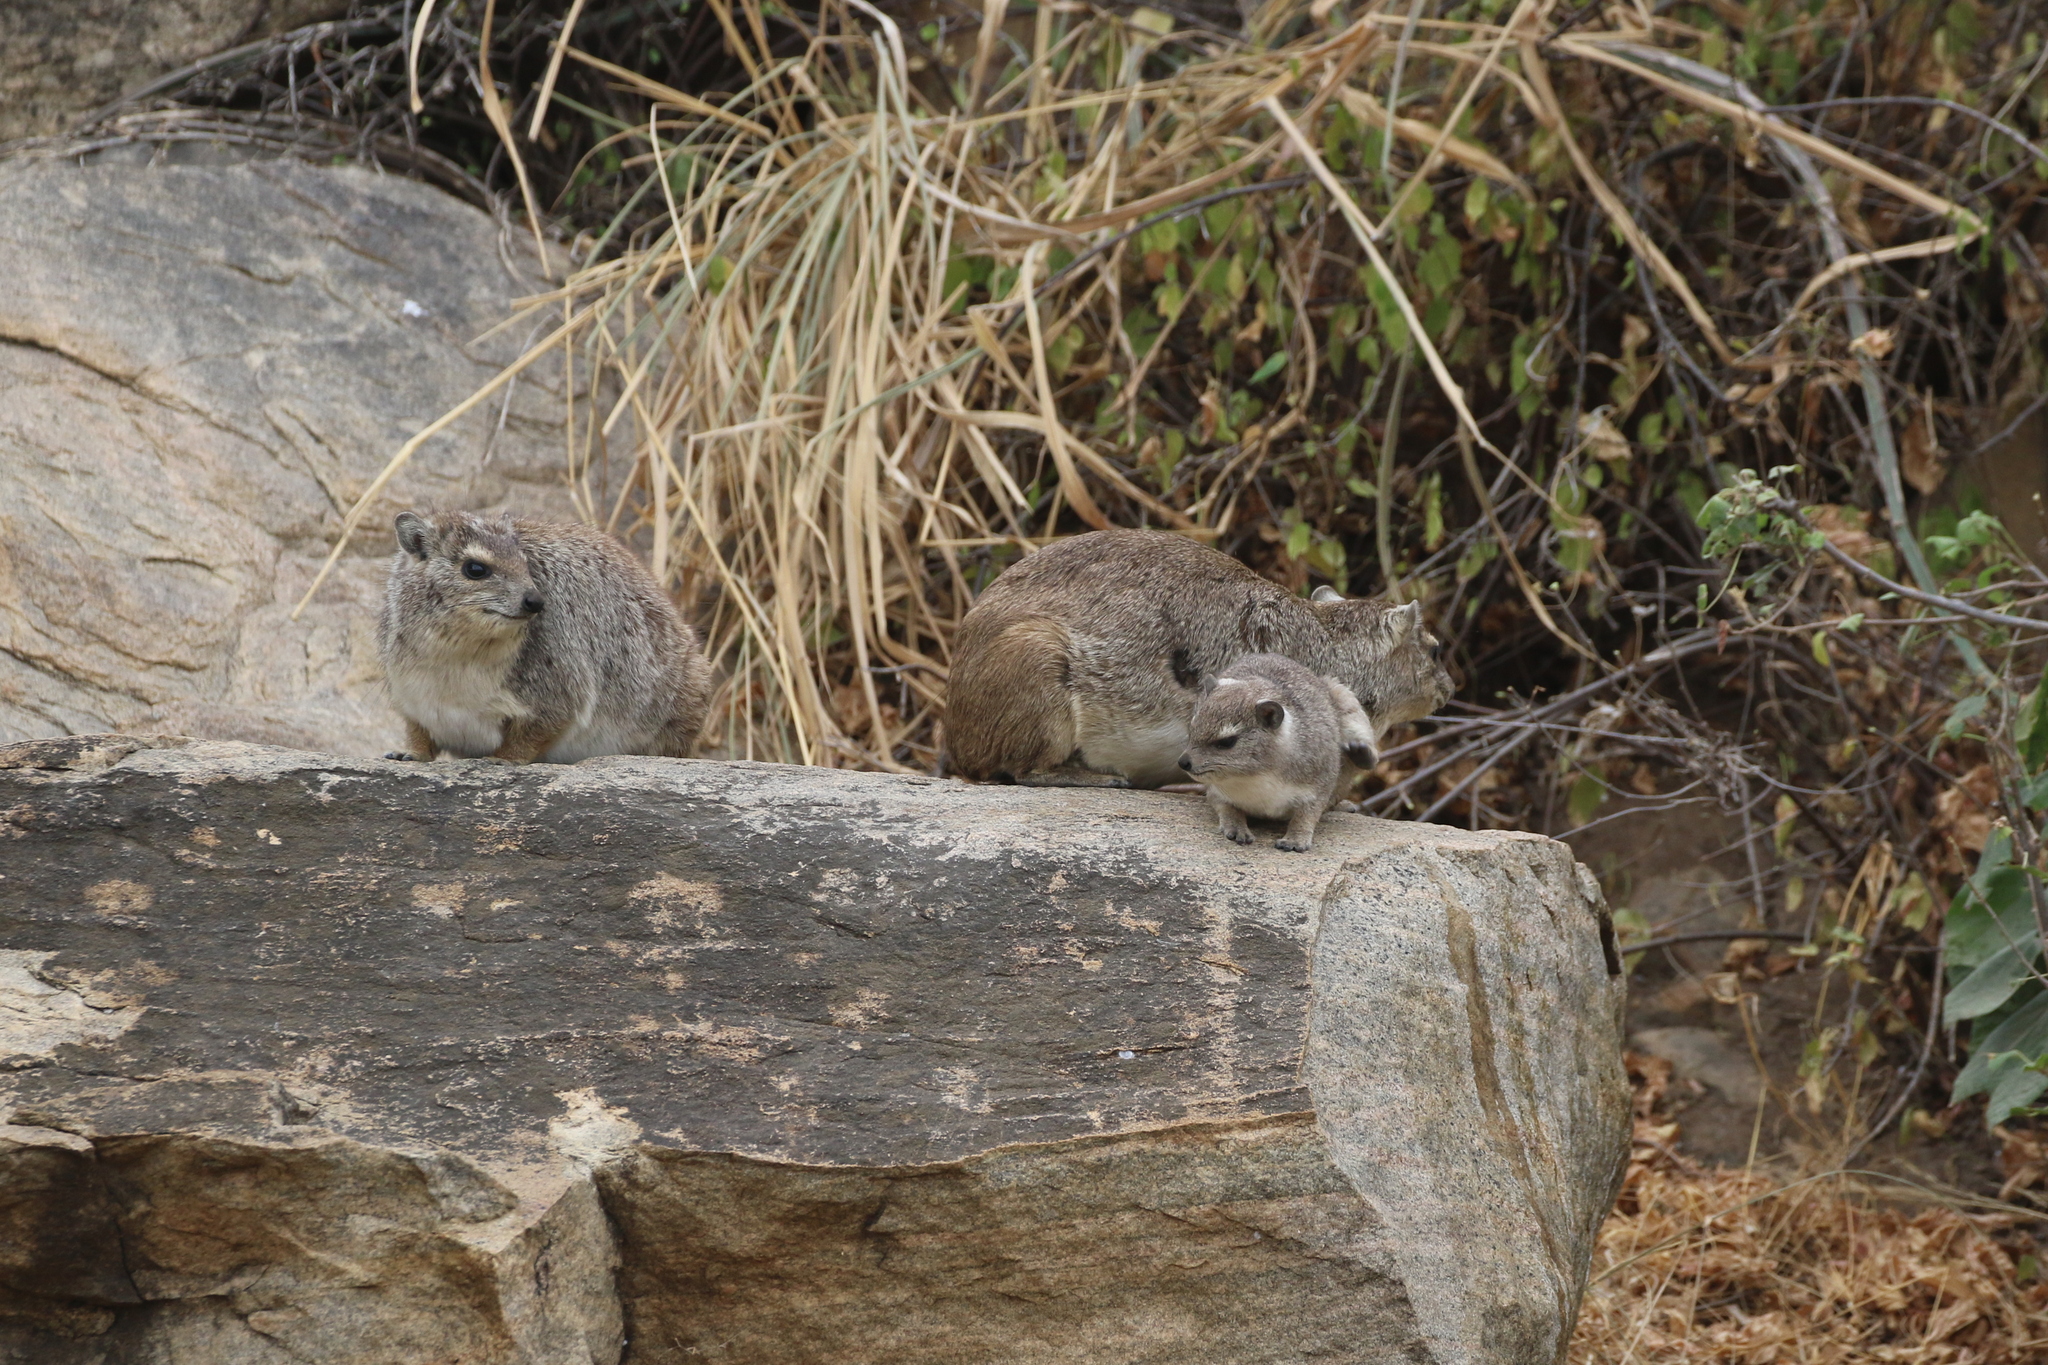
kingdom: Animalia
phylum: Chordata
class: Mammalia
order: Hyracoidea
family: Procaviidae
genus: Heterohyrax
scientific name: Heterohyrax brucei
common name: Bush hyrax
